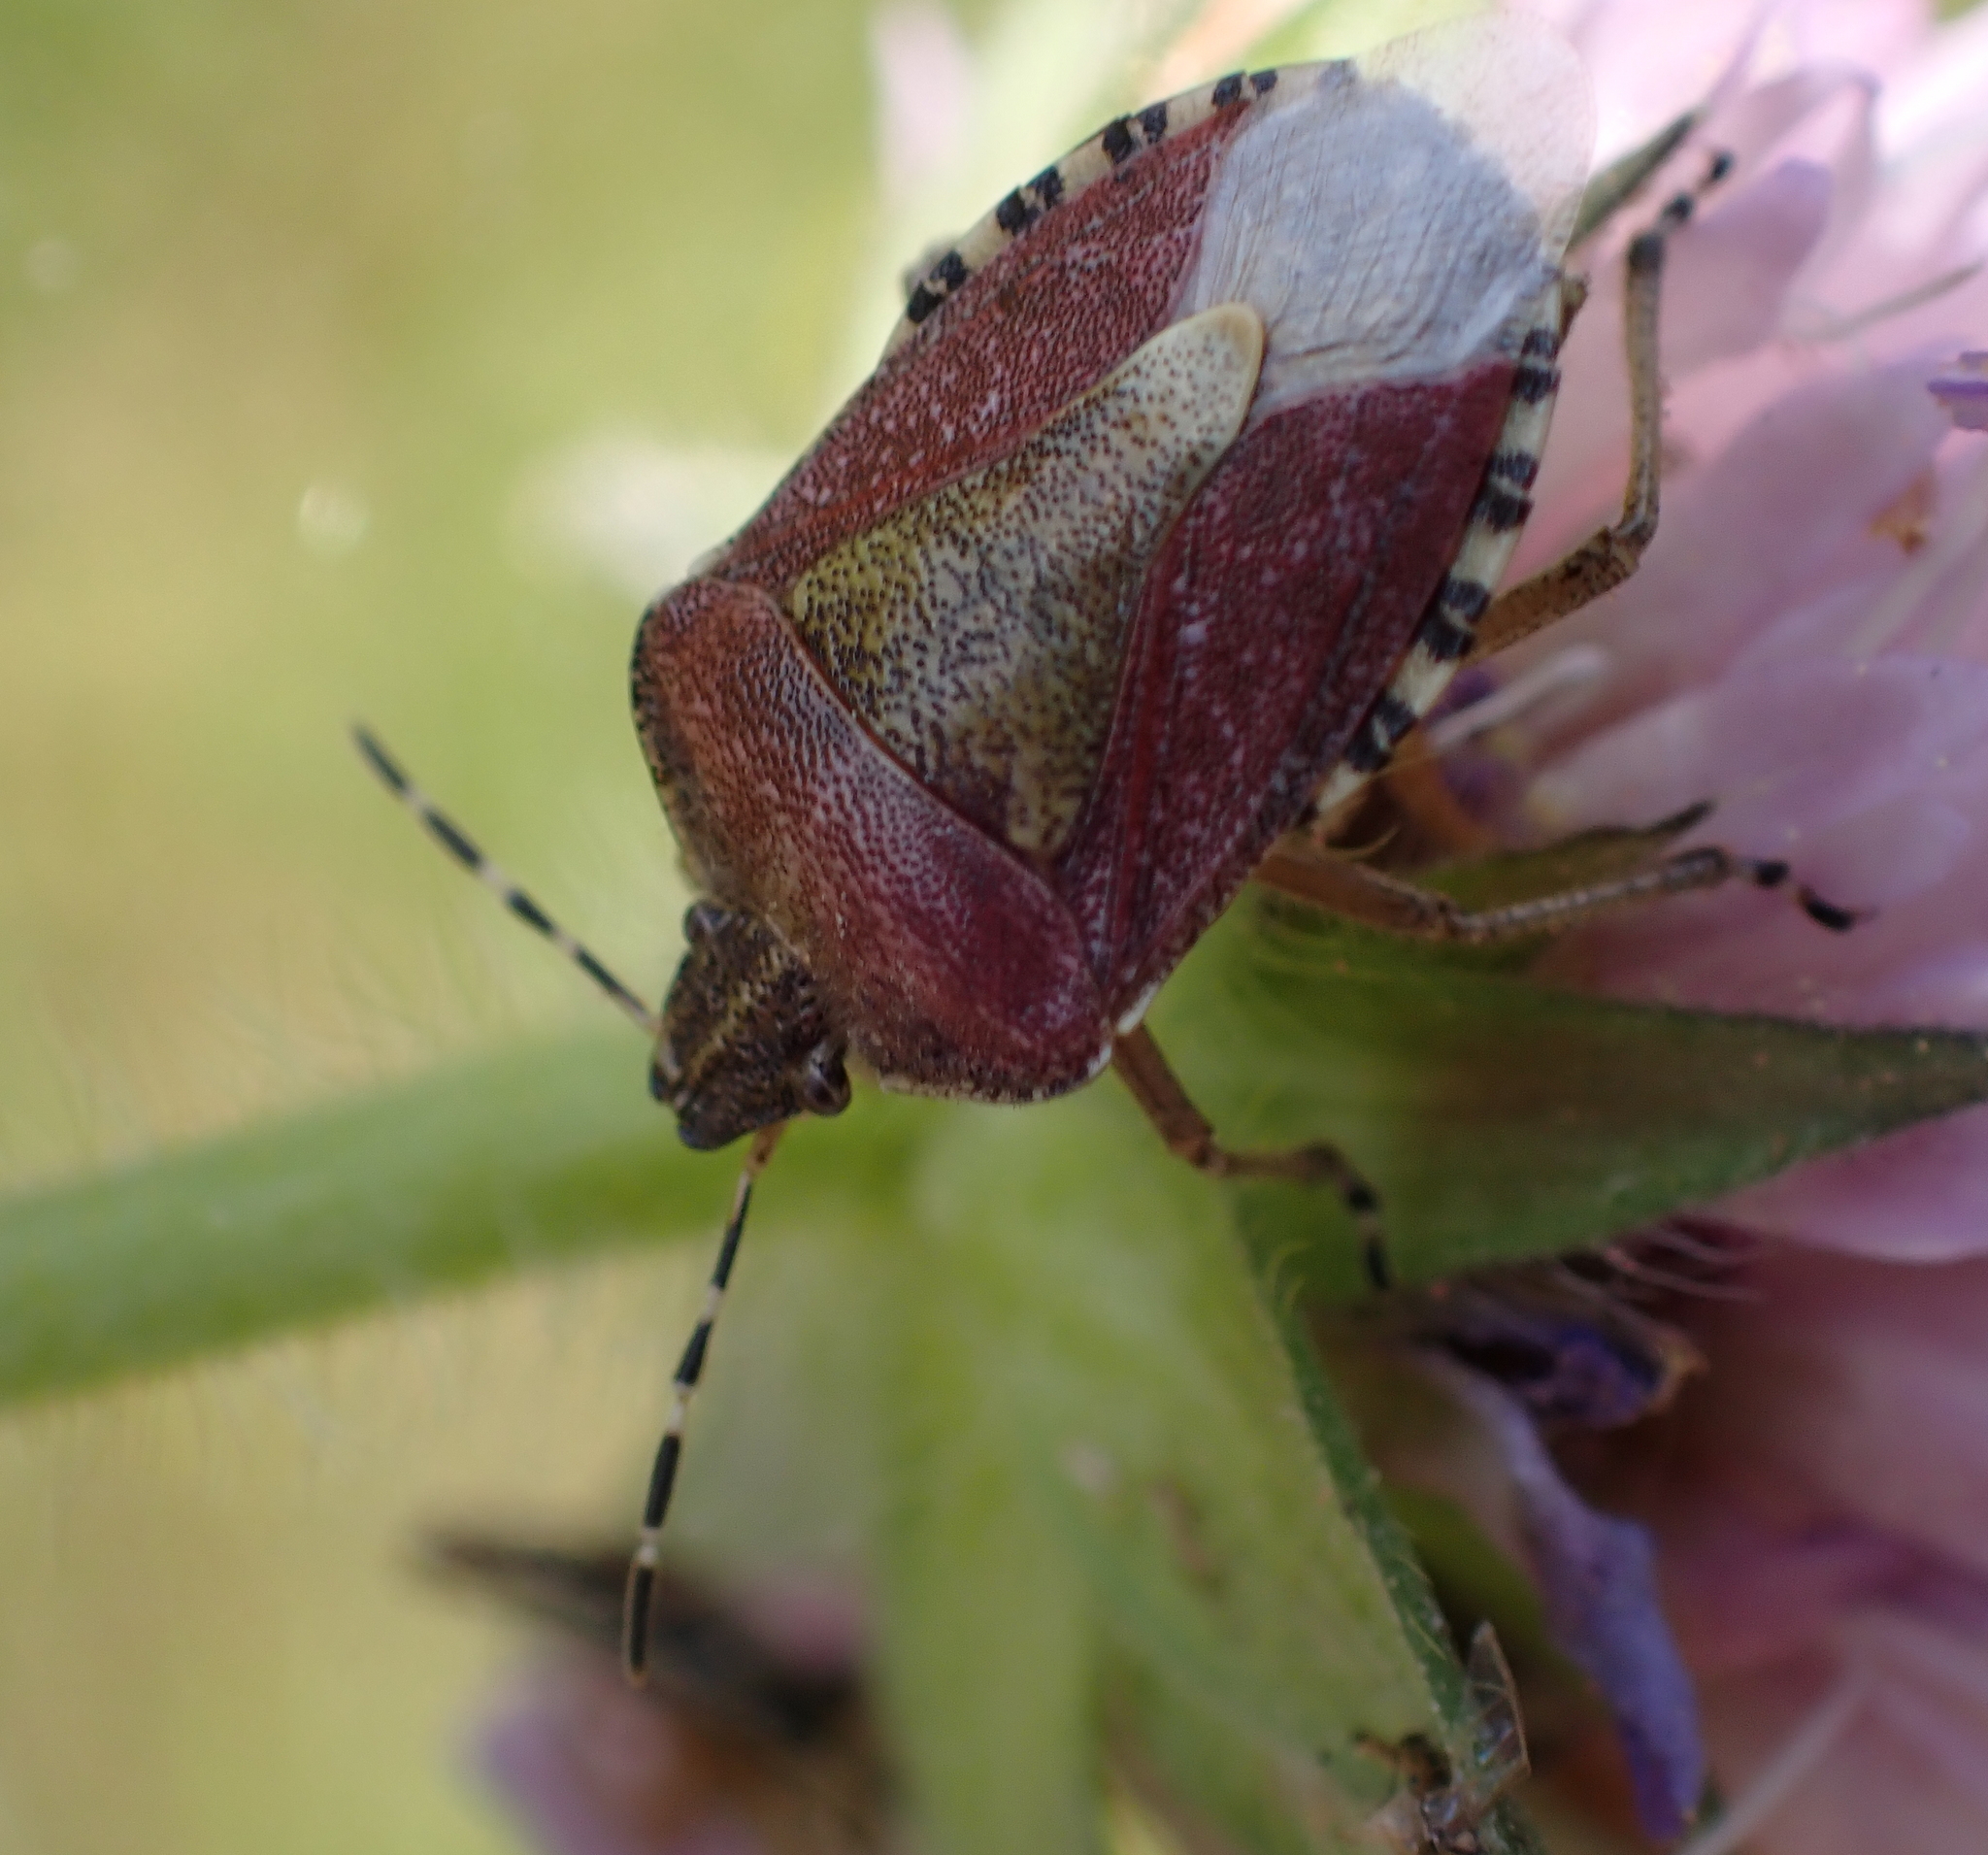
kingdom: Animalia
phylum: Arthropoda
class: Insecta
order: Hemiptera
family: Pentatomidae
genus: Dolycoris
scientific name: Dolycoris baccarum
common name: Sloe bug
